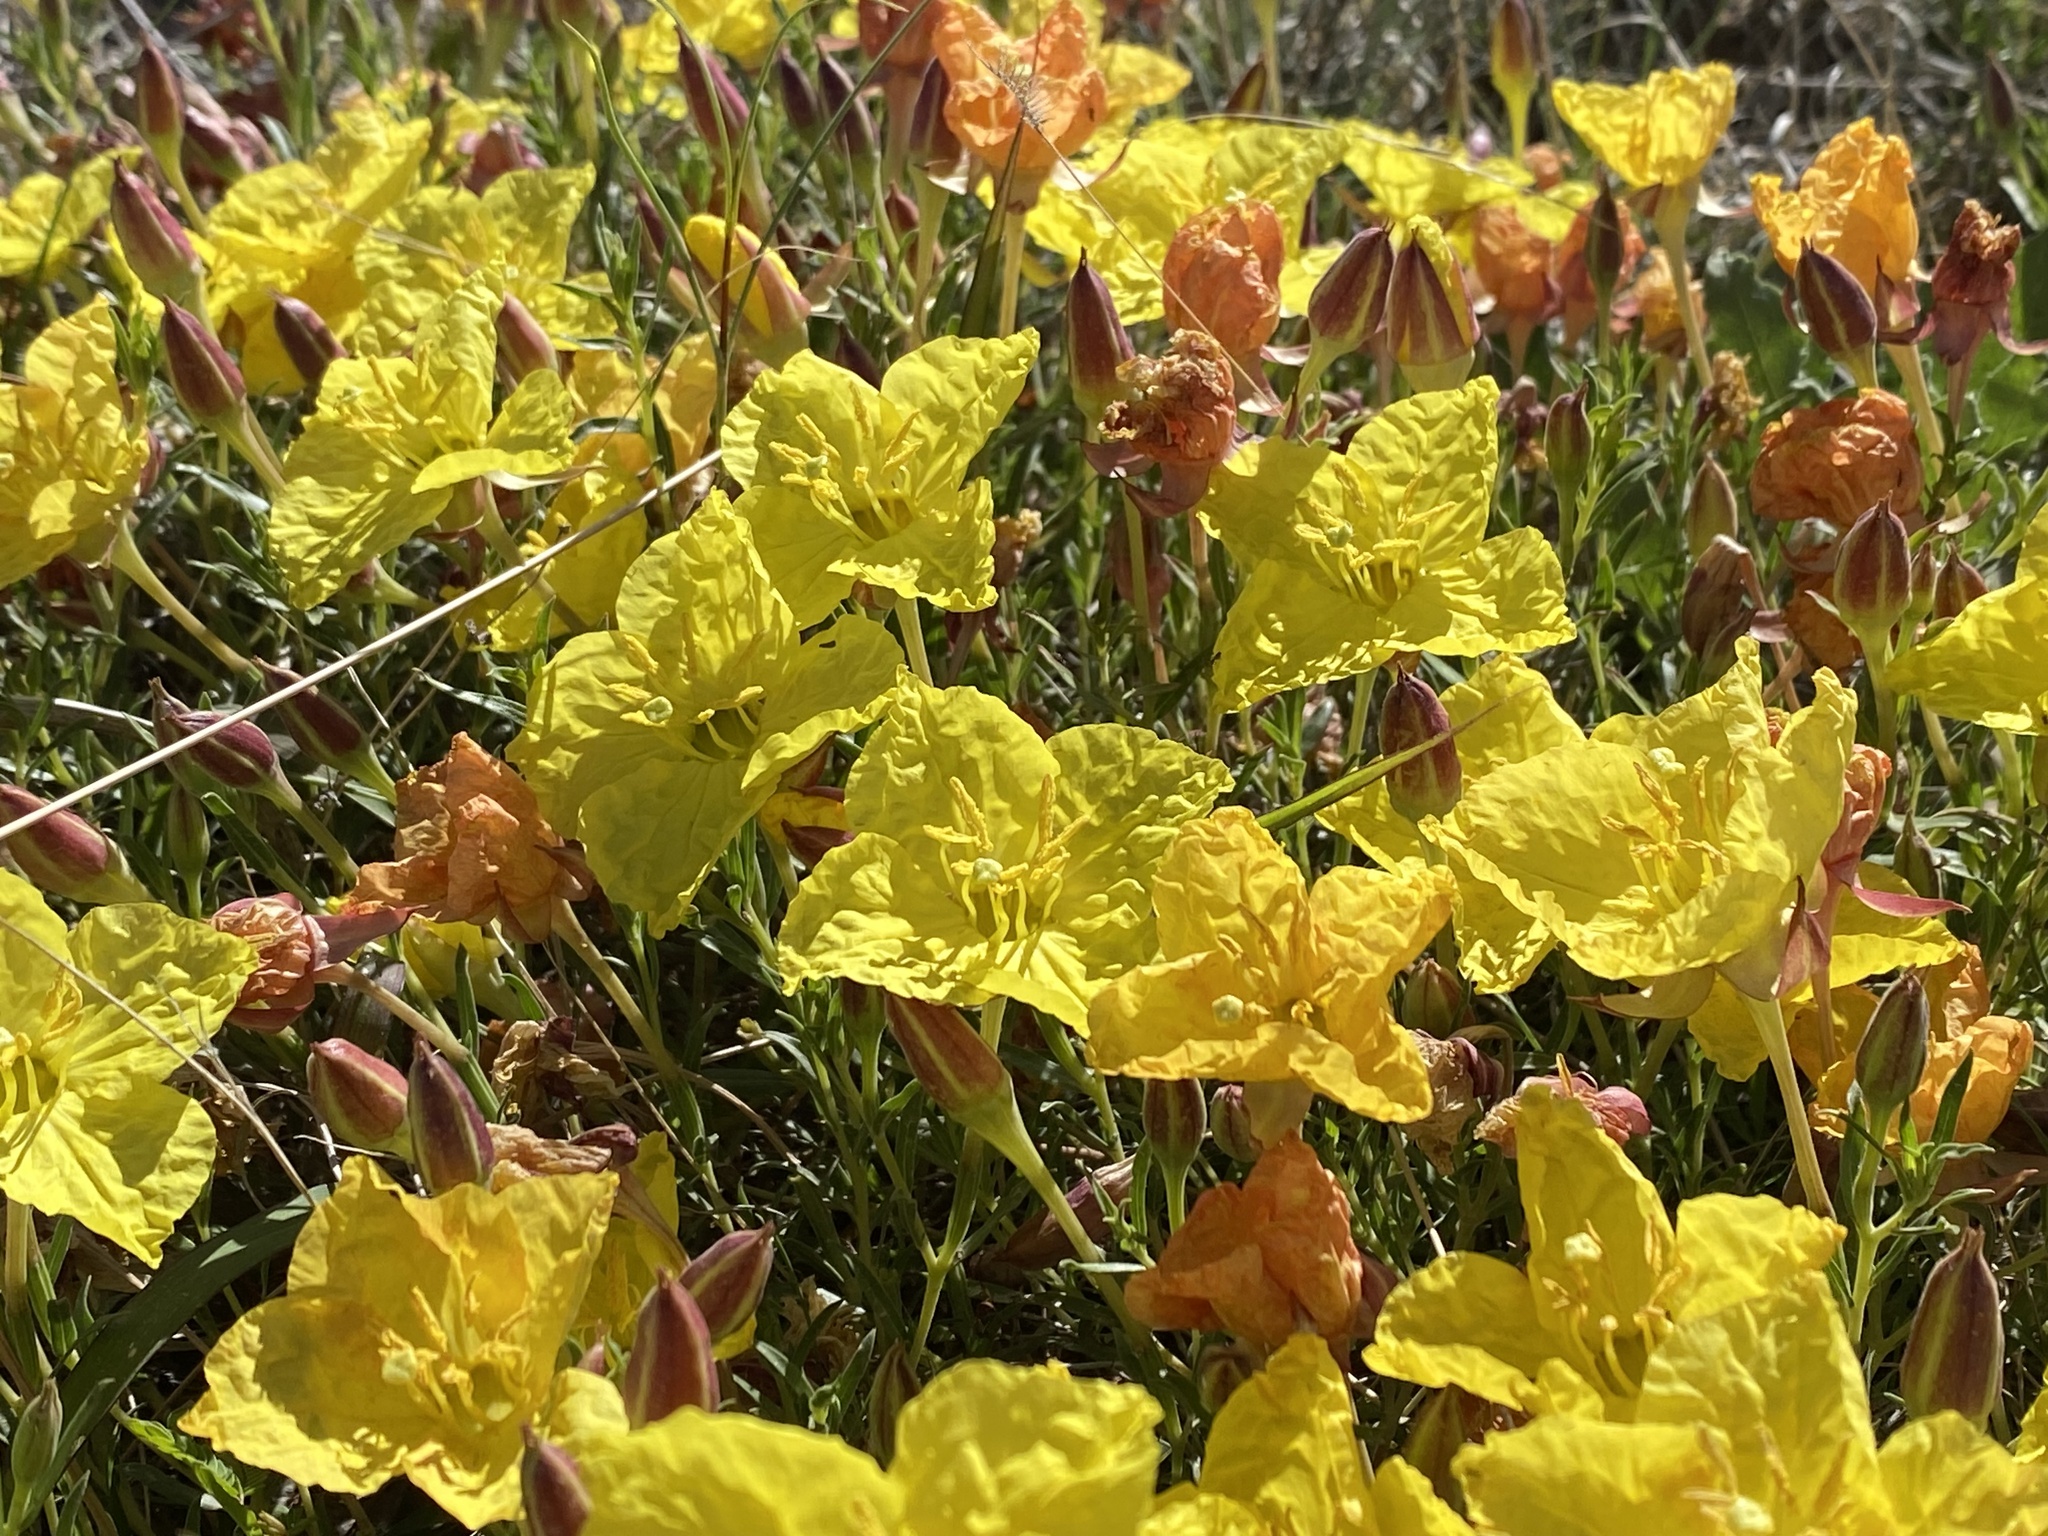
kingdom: Plantae
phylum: Tracheophyta
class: Magnoliopsida
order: Myrtales
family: Onagraceae
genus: Oenothera
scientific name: Oenothera hartwegii
